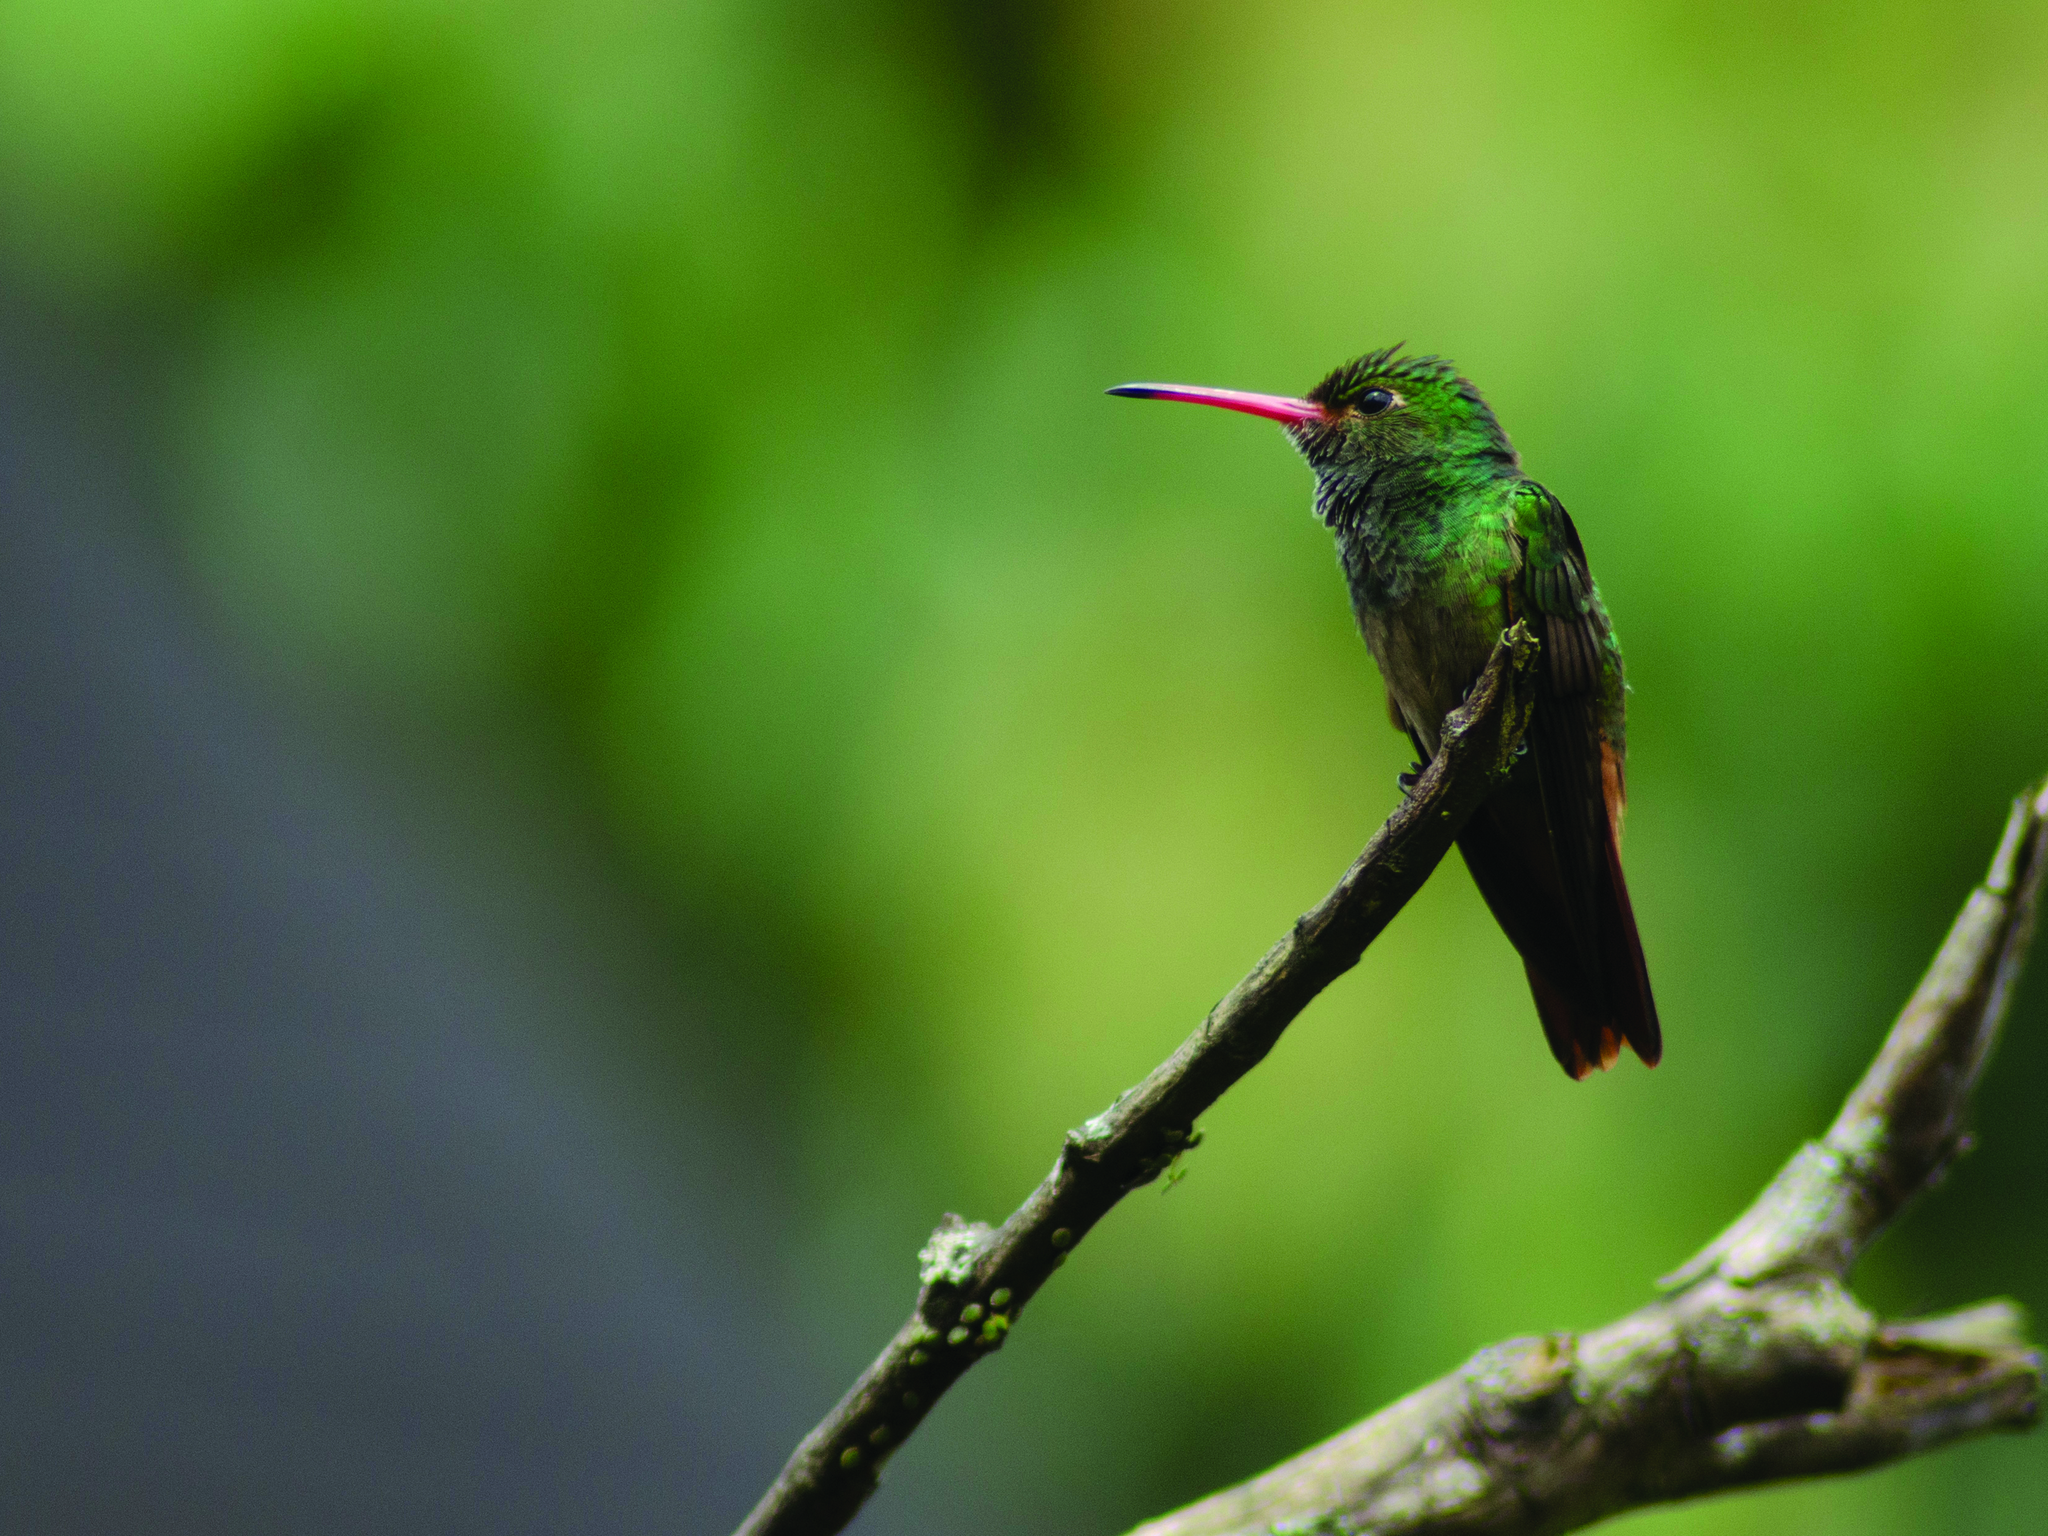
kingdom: Animalia
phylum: Chordata
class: Aves
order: Apodiformes
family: Trochilidae
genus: Amazilia
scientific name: Amazilia tzacatl
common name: Rufous-tailed hummingbird
